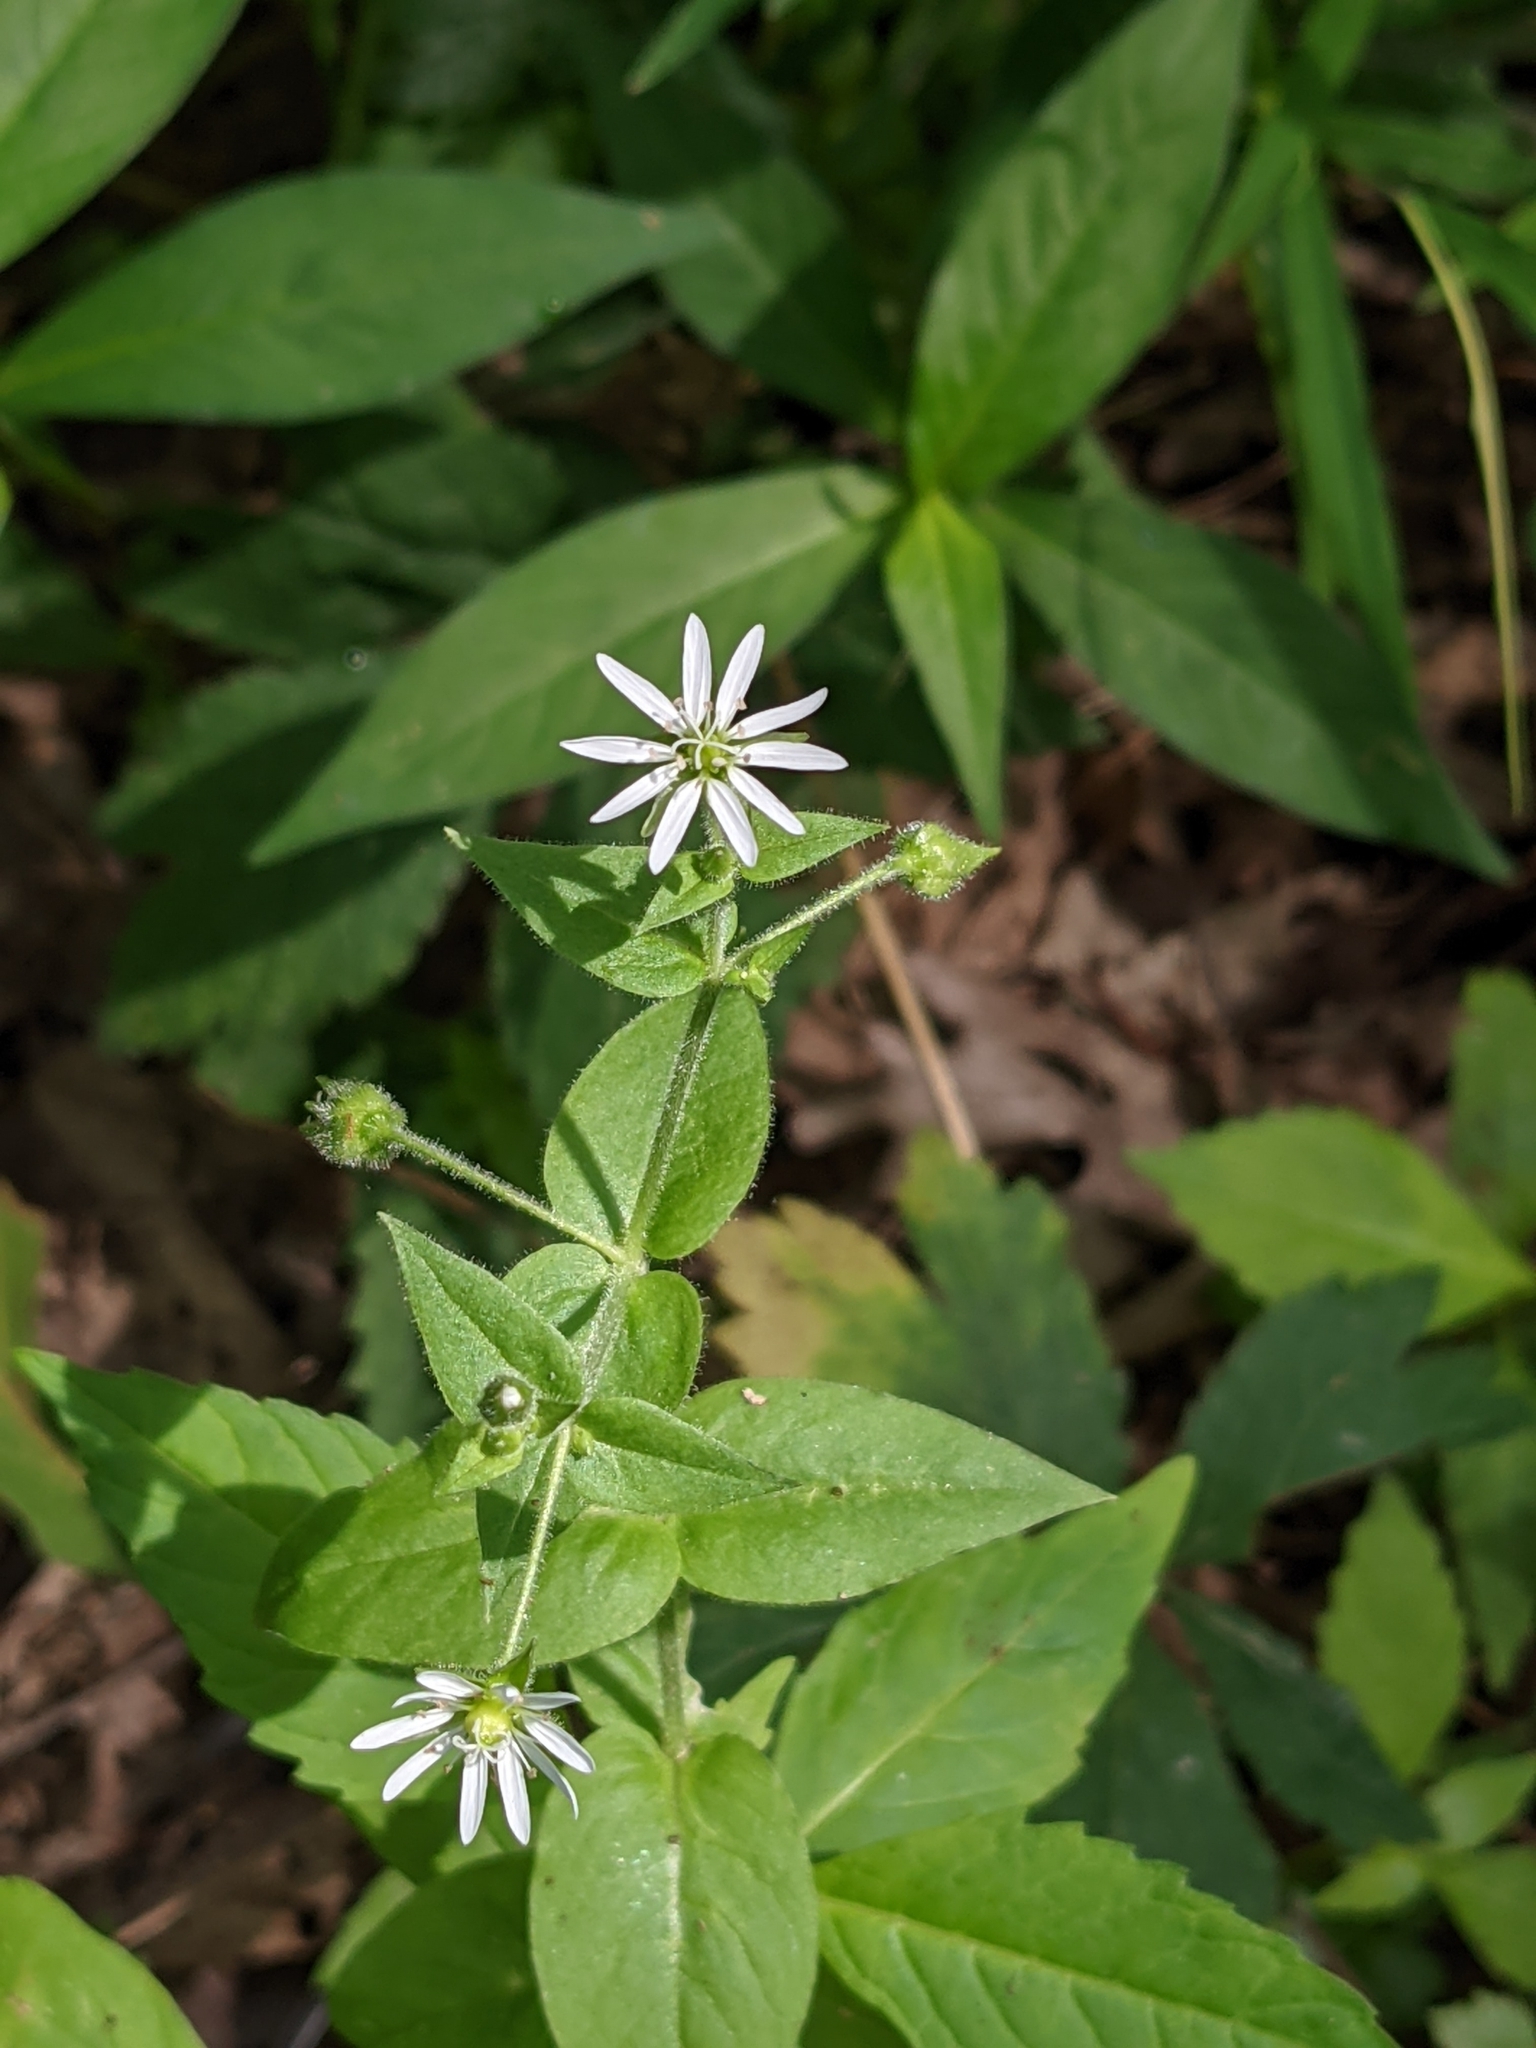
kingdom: Plantae
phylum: Tracheophyta
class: Magnoliopsida
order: Caryophyllales
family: Caryophyllaceae
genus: Stellaria
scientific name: Stellaria aquatica
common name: Water chickweed
